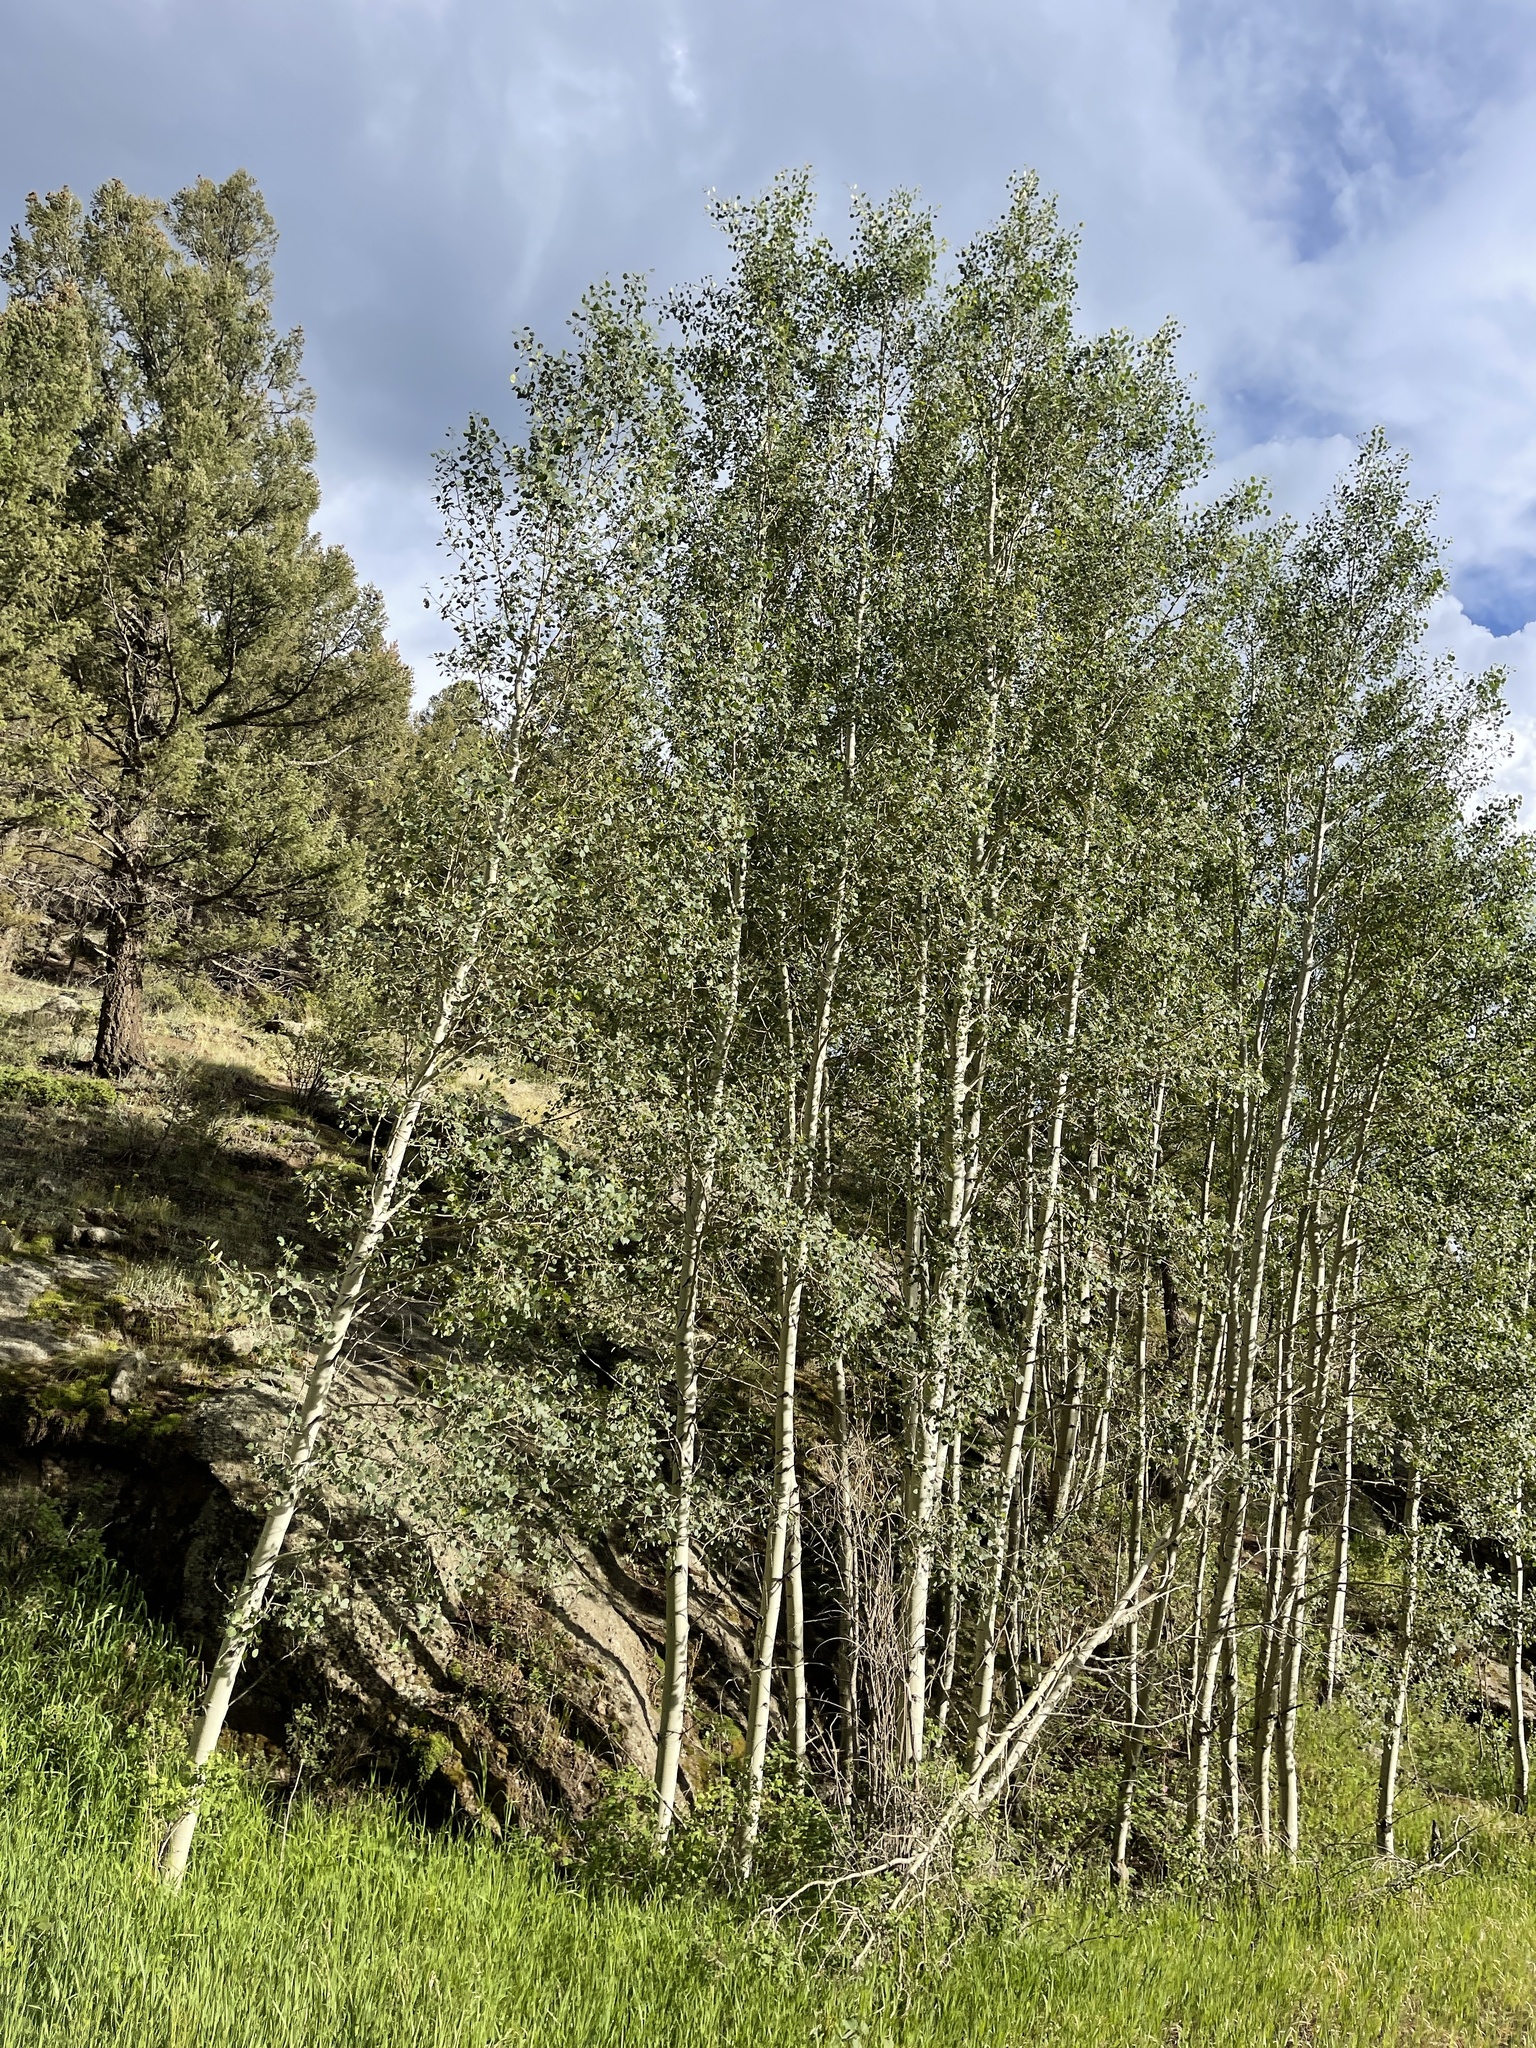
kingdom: Plantae
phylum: Tracheophyta
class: Magnoliopsida
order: Malpighiales
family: Salicaceae
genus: Populus
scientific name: Populus tremuloides
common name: Quaking aspen
